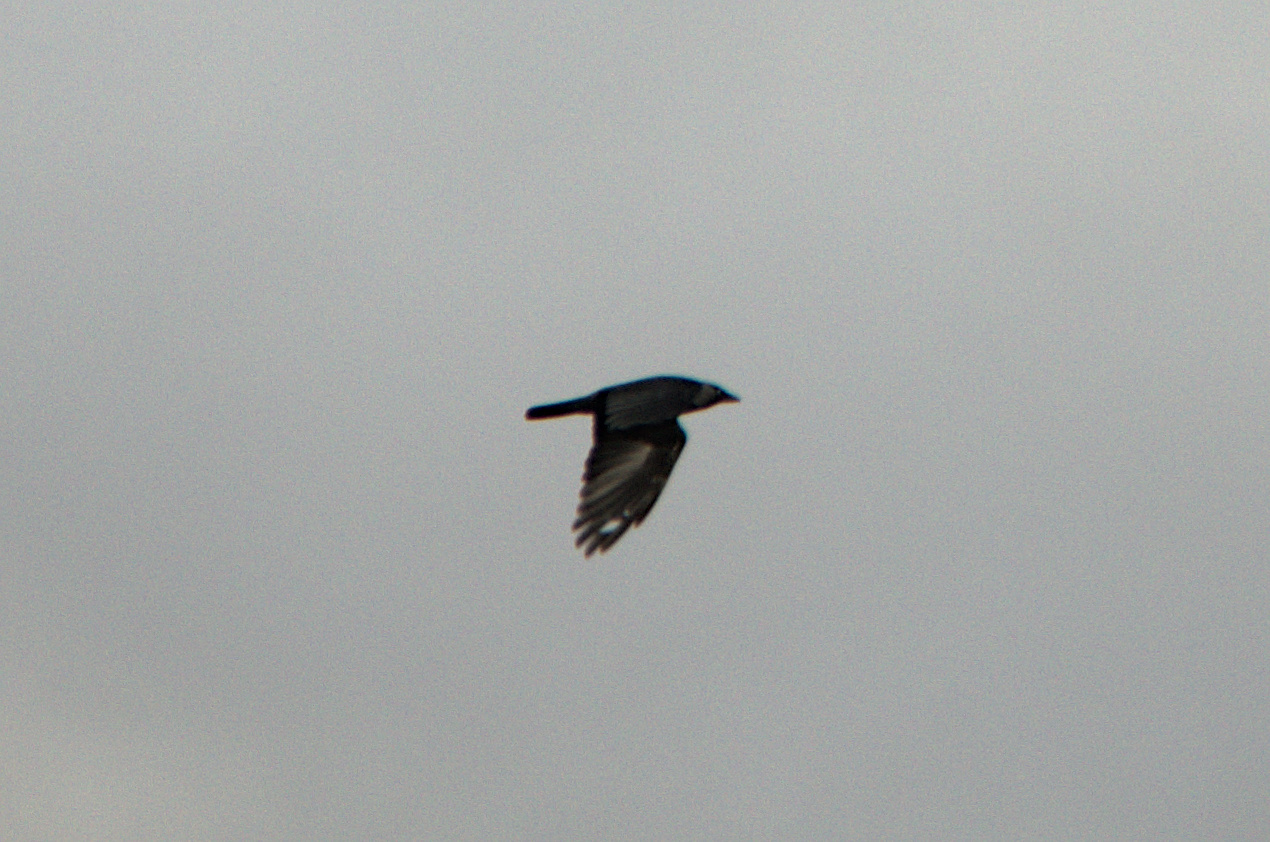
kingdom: Animalia
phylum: Chordata
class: Aves
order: Passeriformes
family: Corvidae
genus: Coloeus
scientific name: Coloeus monedula
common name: Western jackdaw
